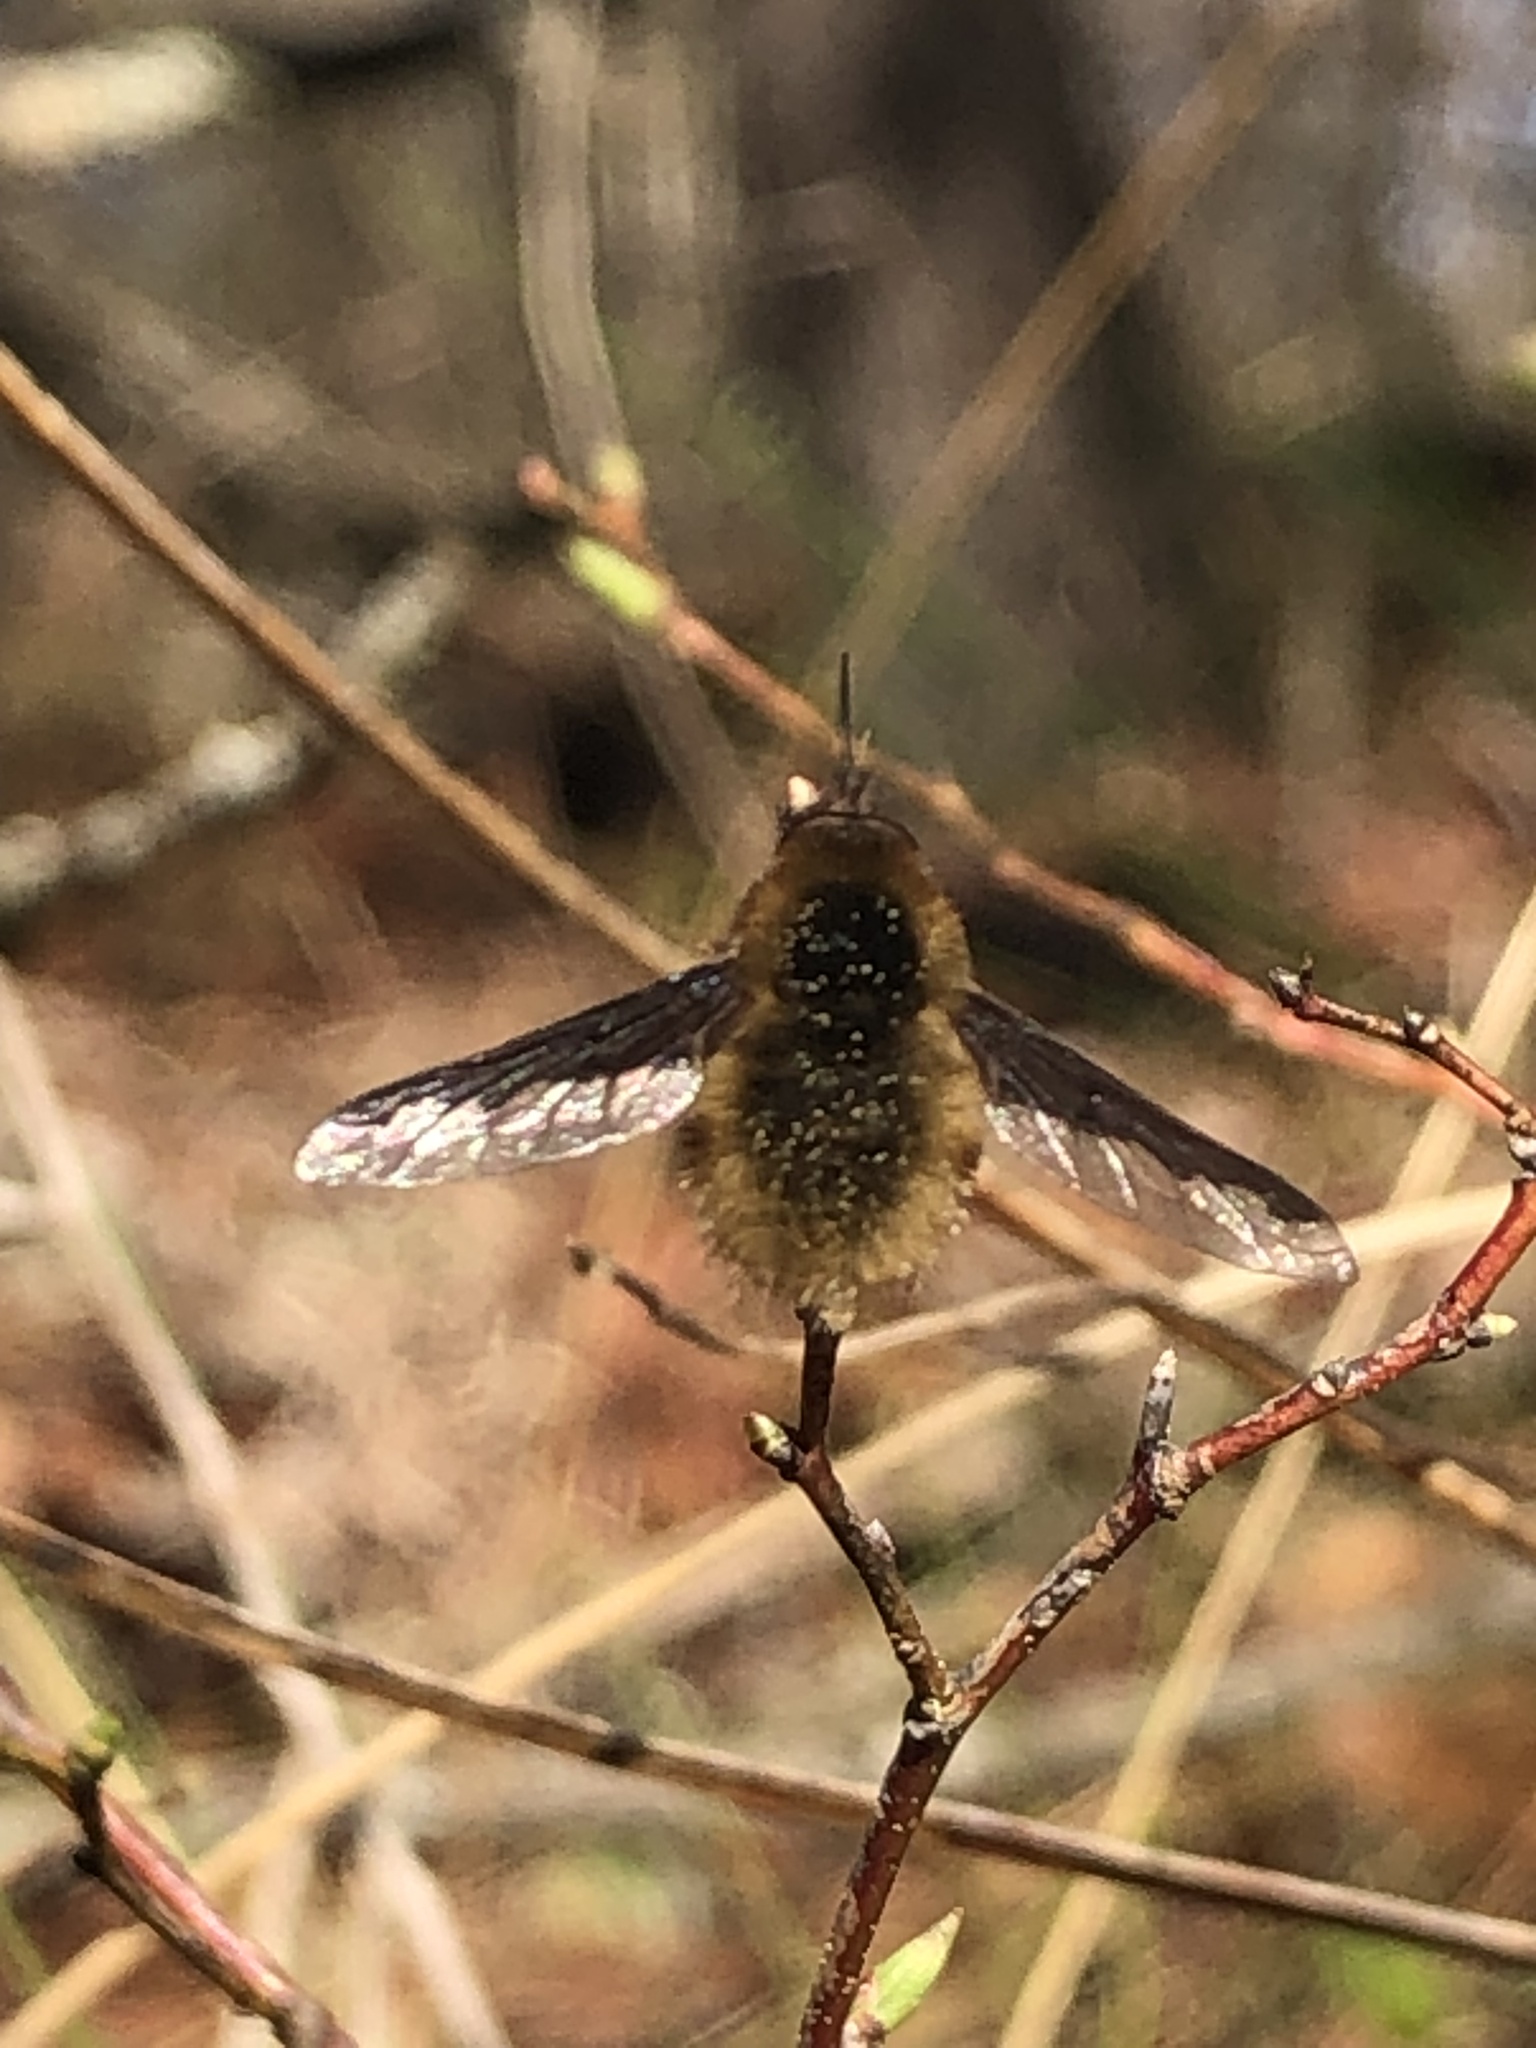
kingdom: Animalia
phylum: Arthropoda
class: Insecta
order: Diptera
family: Bombyliidae
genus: Bombylius
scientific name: Bombylius major
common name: Bee fly
